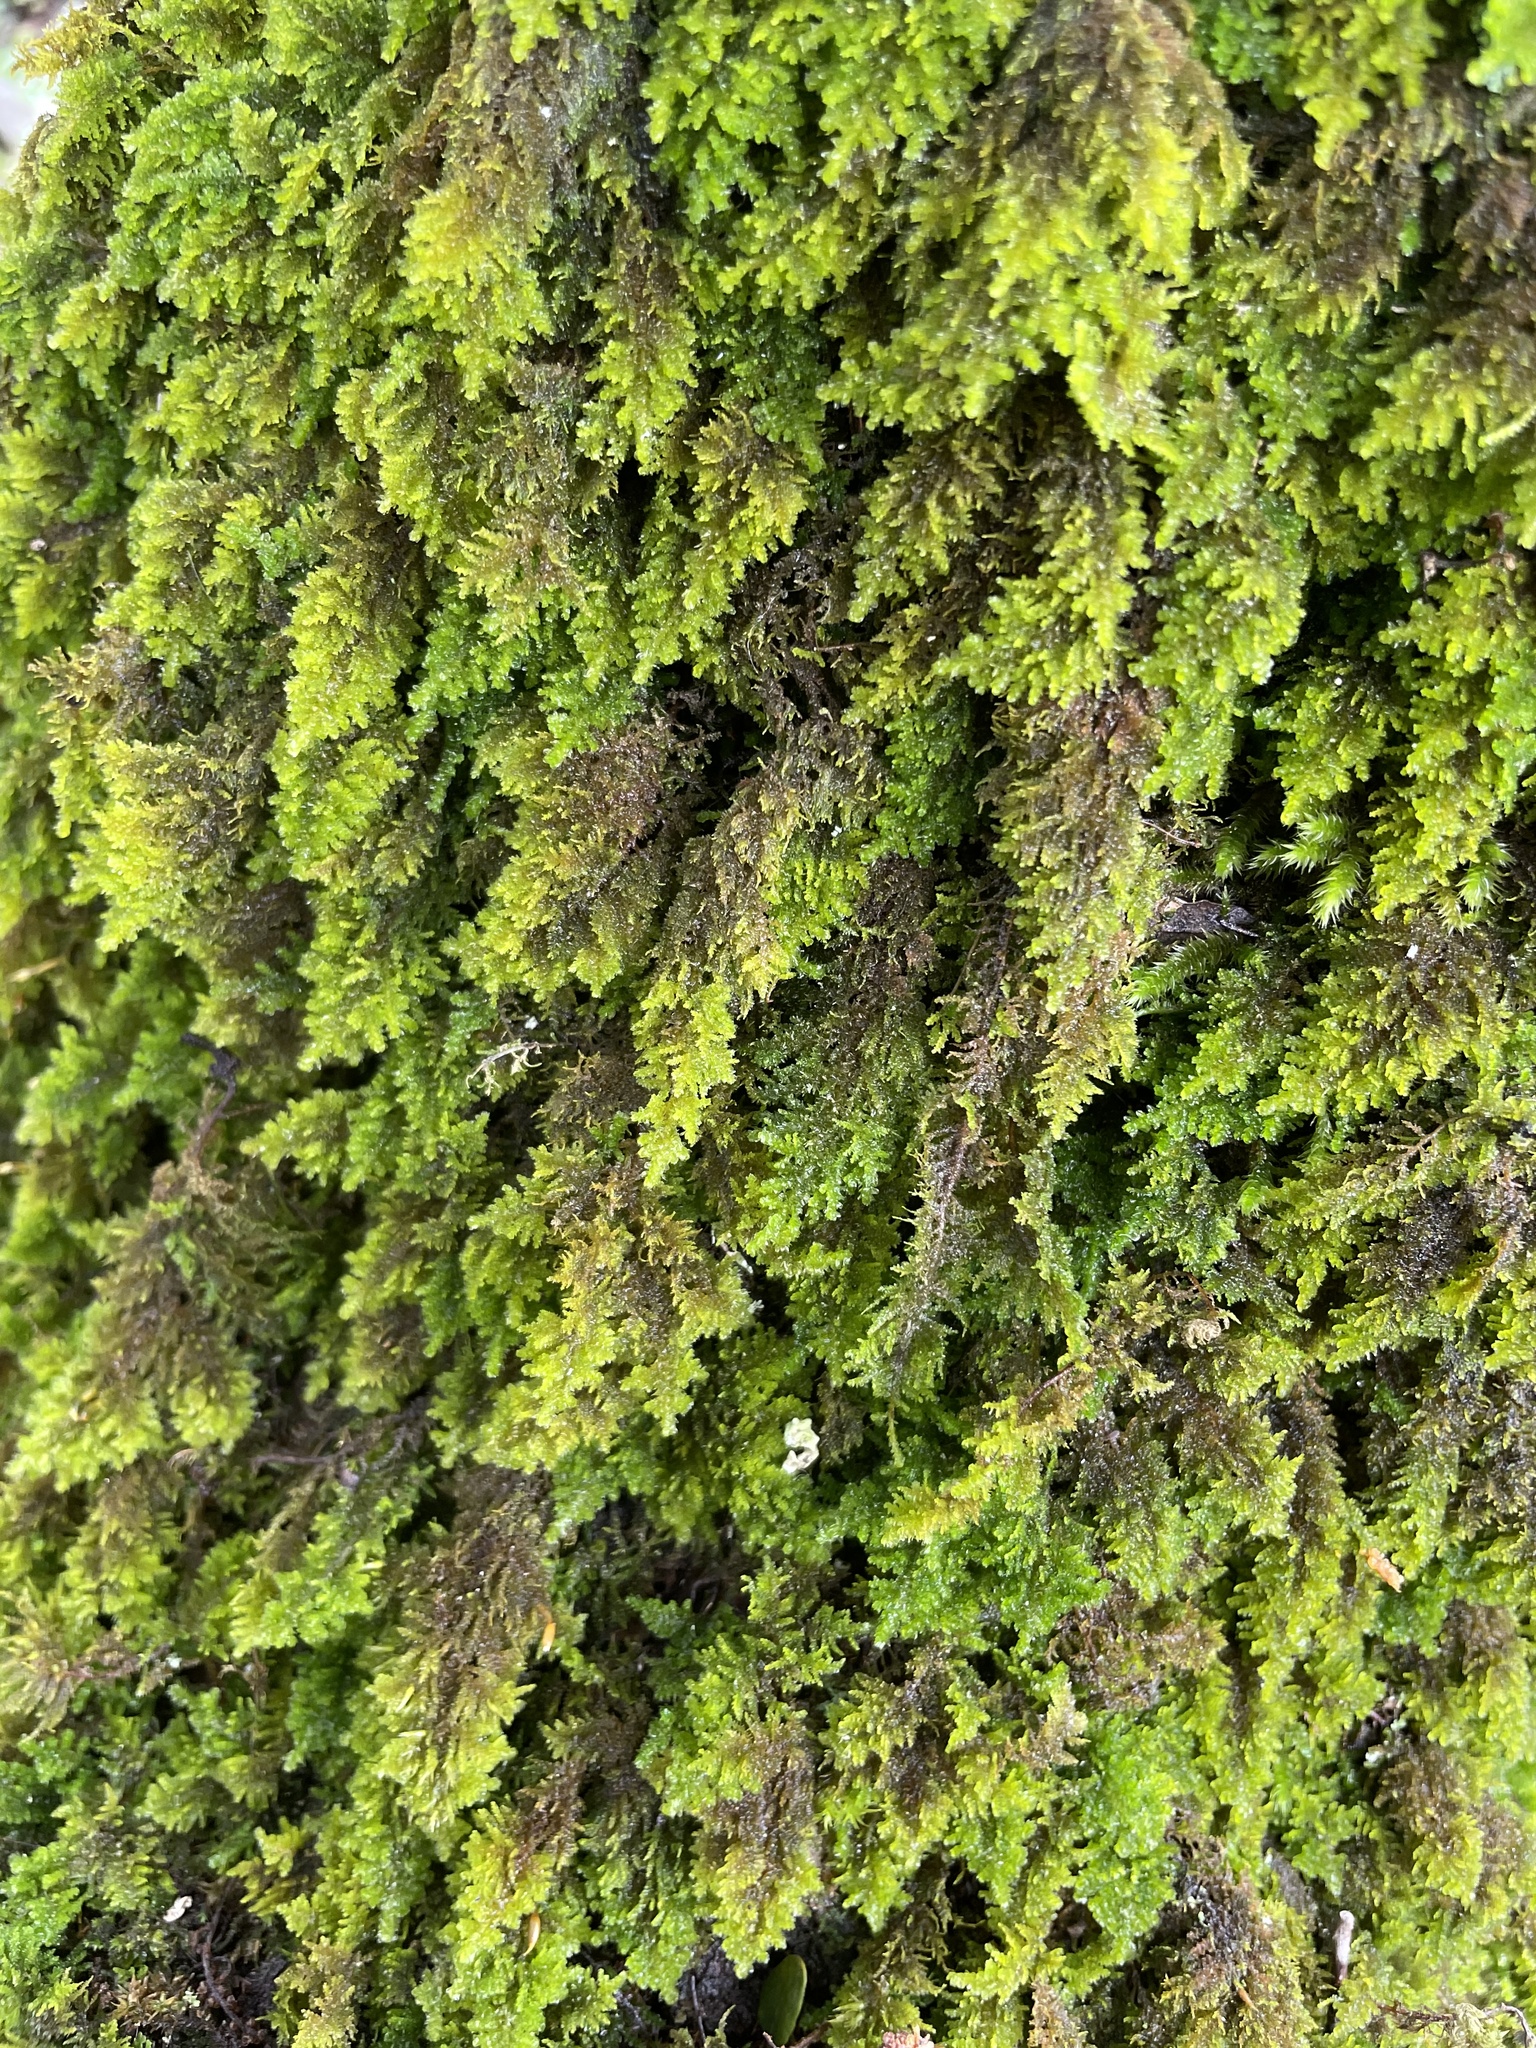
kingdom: Plantae
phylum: Bryophyta
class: Bryopsida
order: Hypnales
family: Neckeraceae
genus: Leptodon
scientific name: Leptodon smithii
